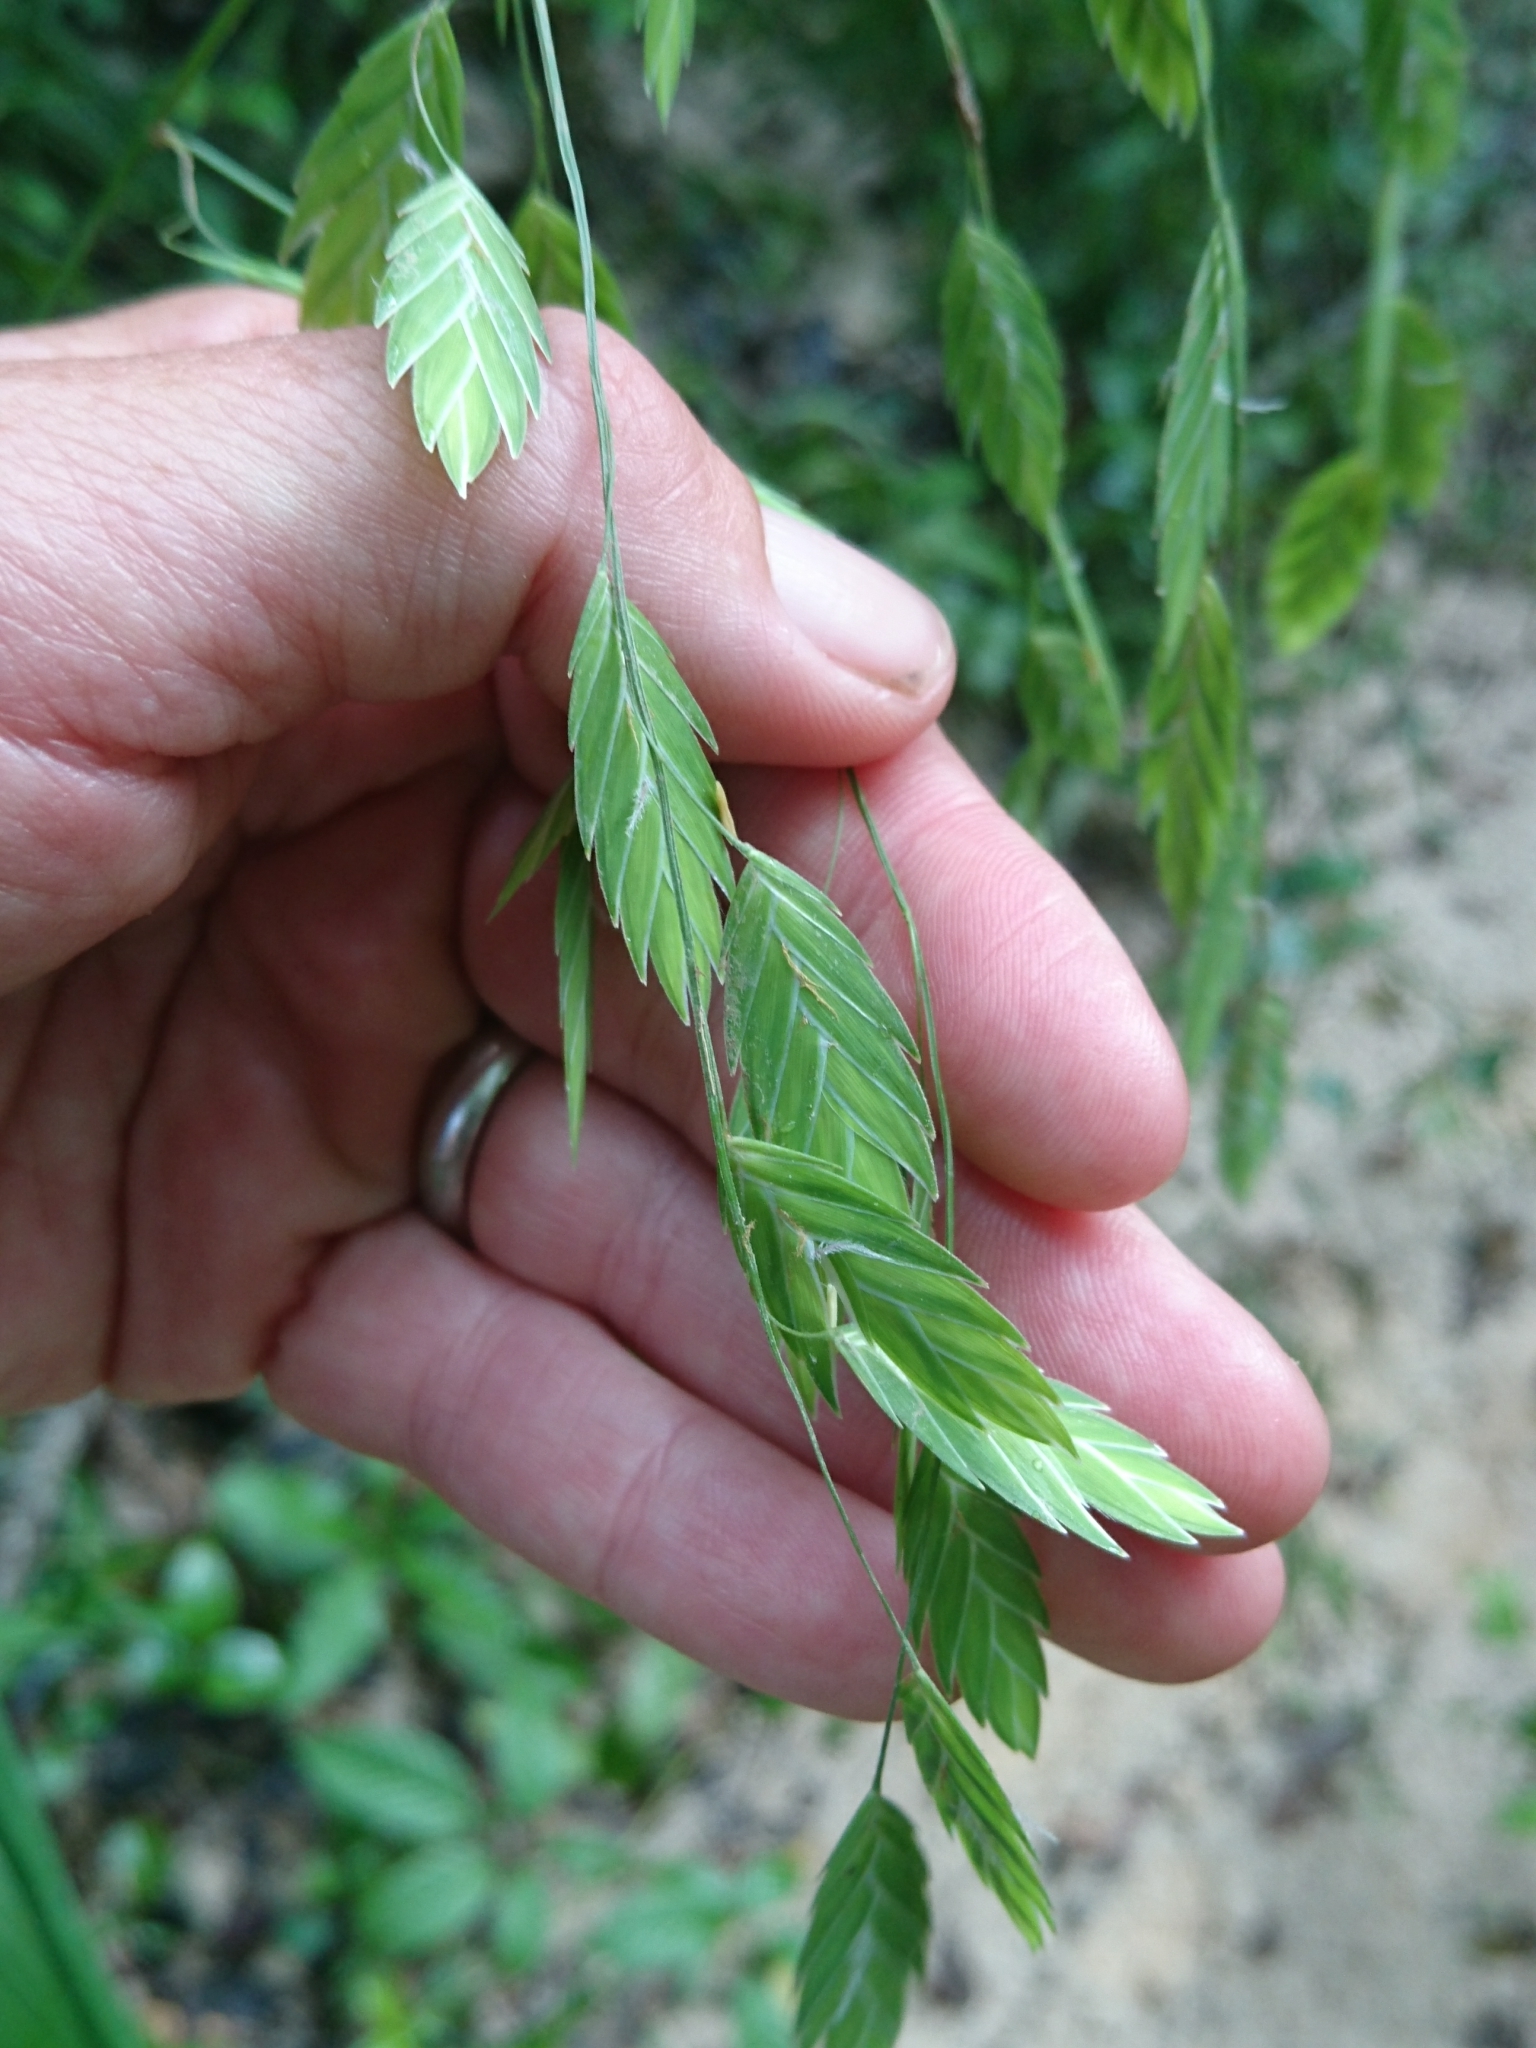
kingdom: Plantae
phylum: Tracheophyta
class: Liliopsida
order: Poales
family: Poaceae
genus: Chasmanthium
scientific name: Chasmanthium latifolium
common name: Broad-leaved chasmanthium
